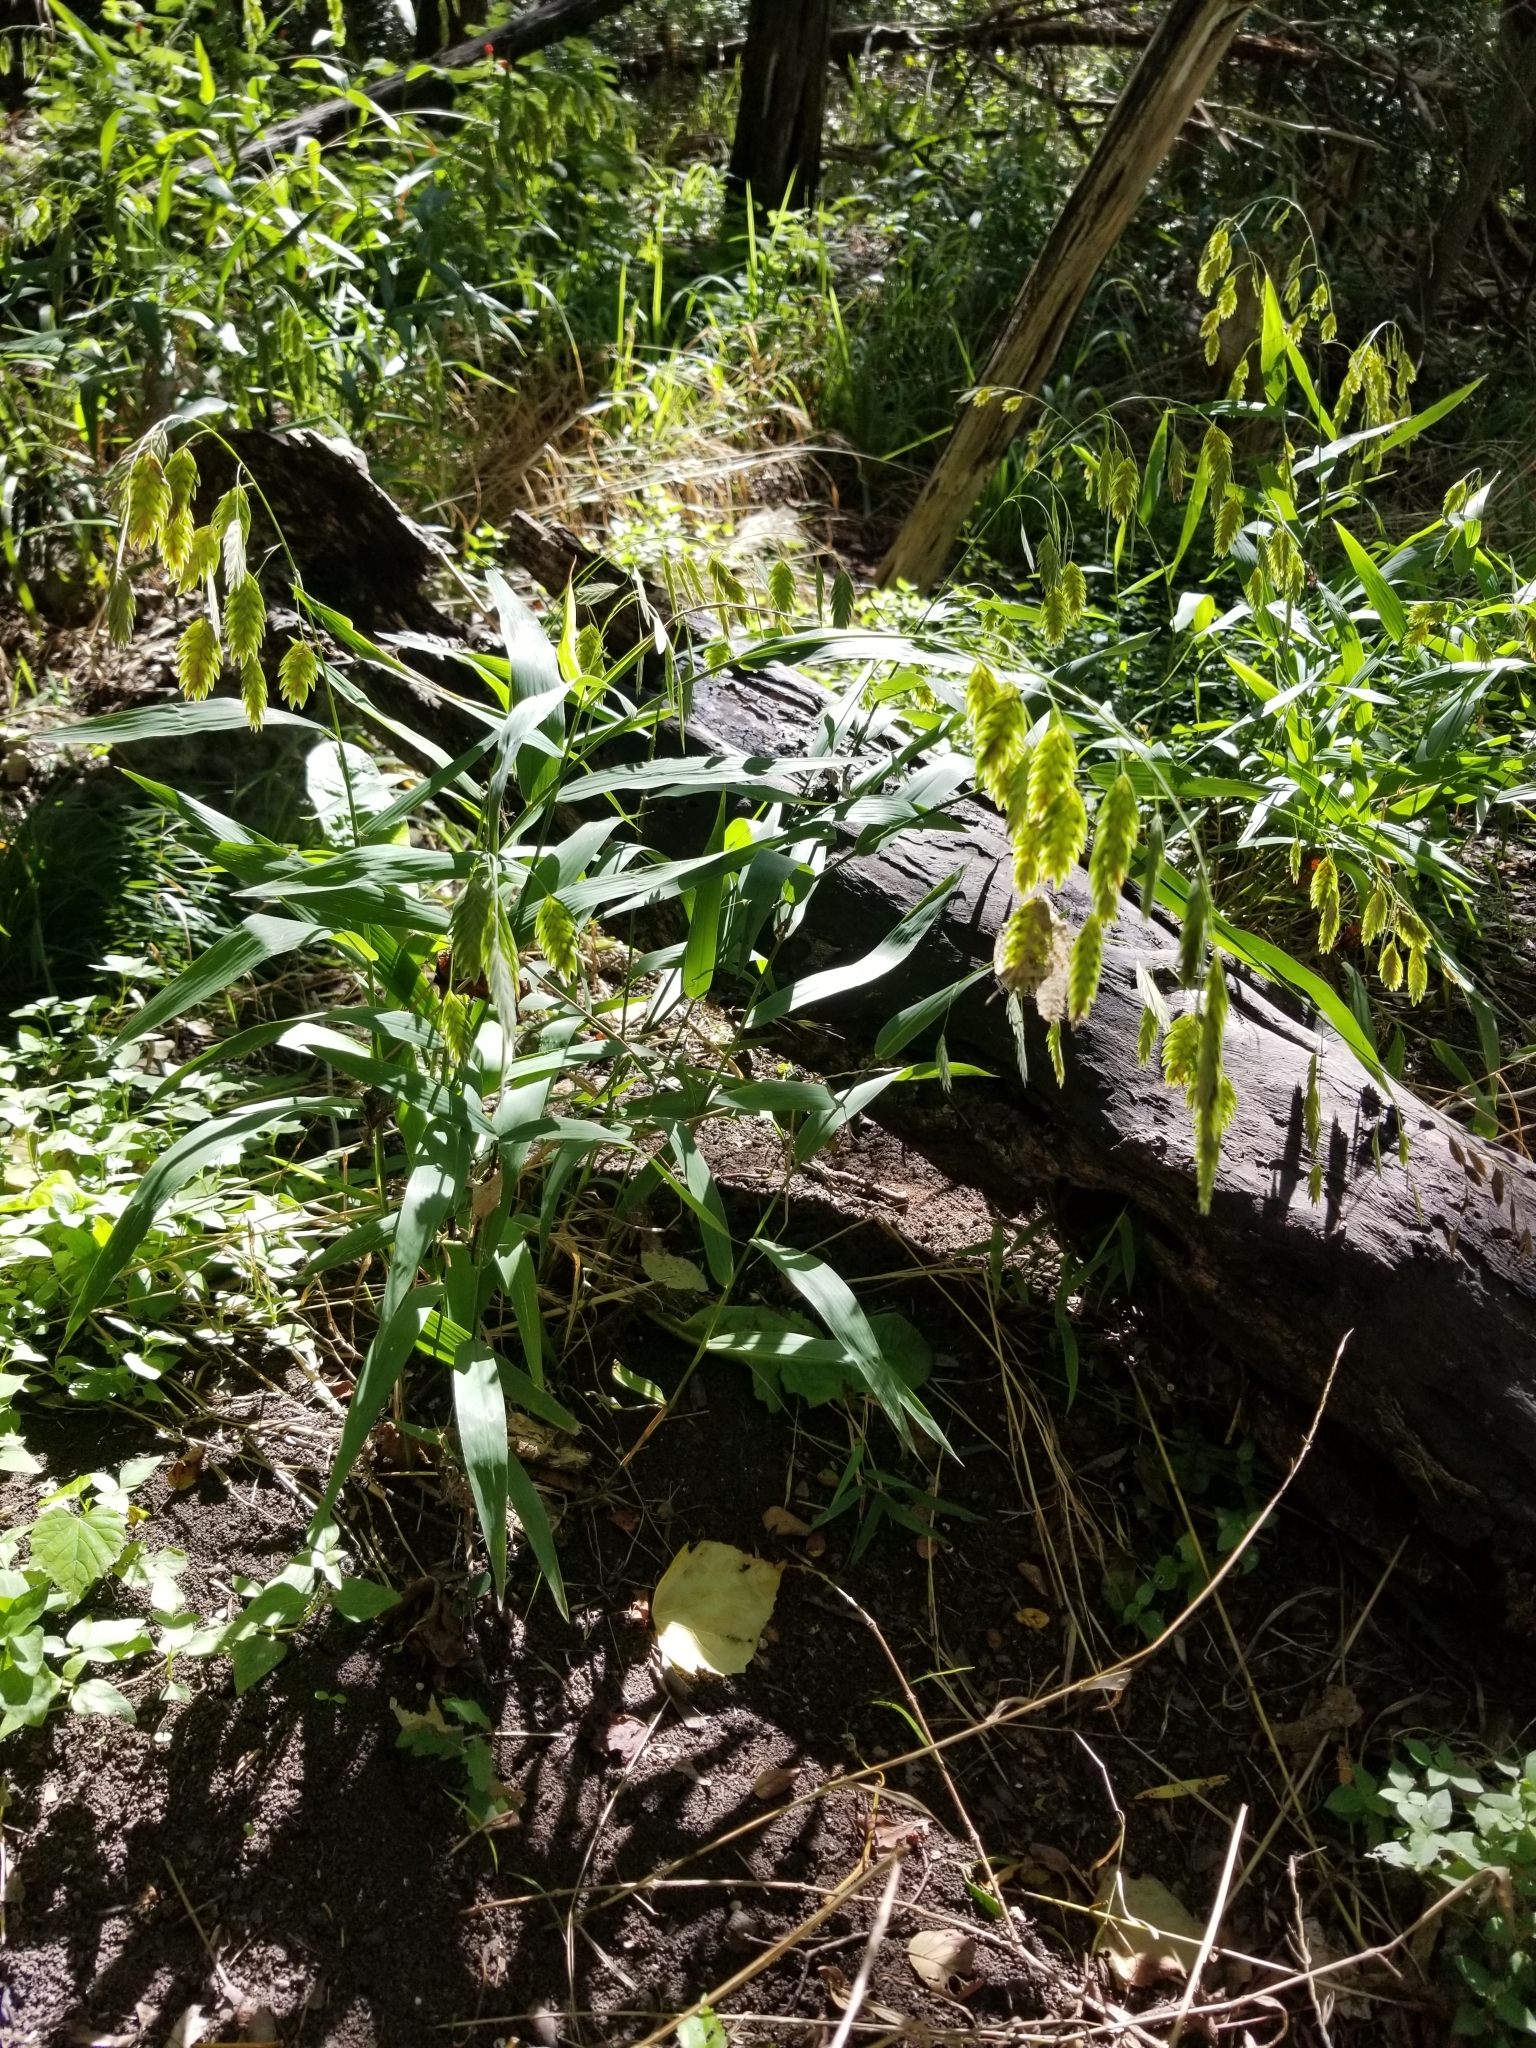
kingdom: Plantae
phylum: Tracheophyta
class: Liliopsida
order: Poales
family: Poaceae
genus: Chasmanthium
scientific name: Chasmanthium latifolium
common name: Broad-leaved chasmanthium
